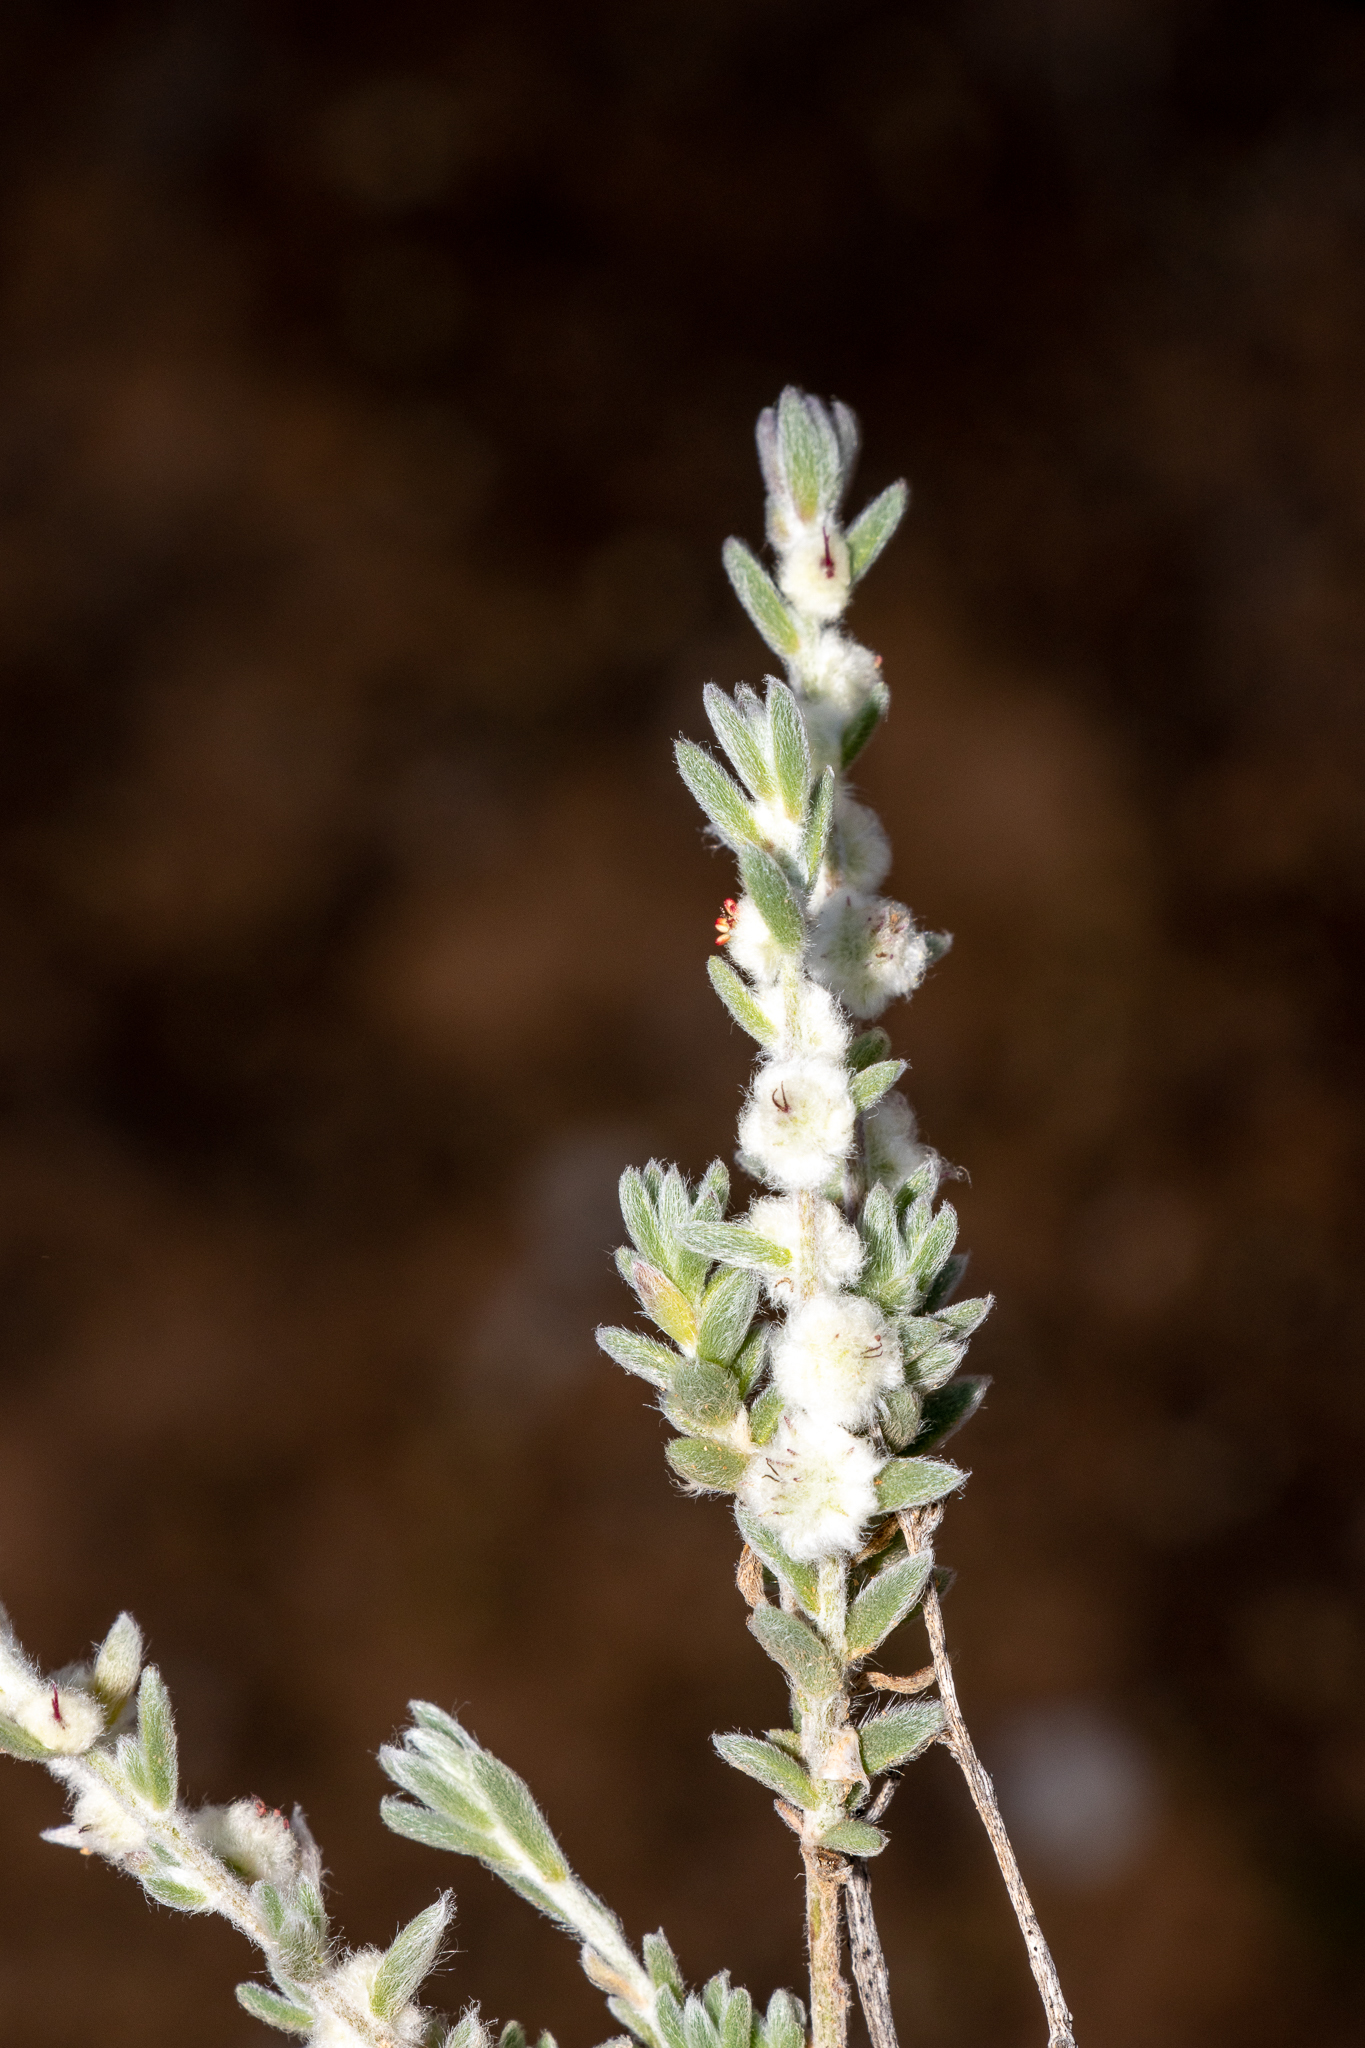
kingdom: Plantae
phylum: Tracheophyta
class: Magnoliopsida
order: Caryophyllales
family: Amaranthaceae
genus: Maireana
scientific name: Maireana sclerolaenoides
